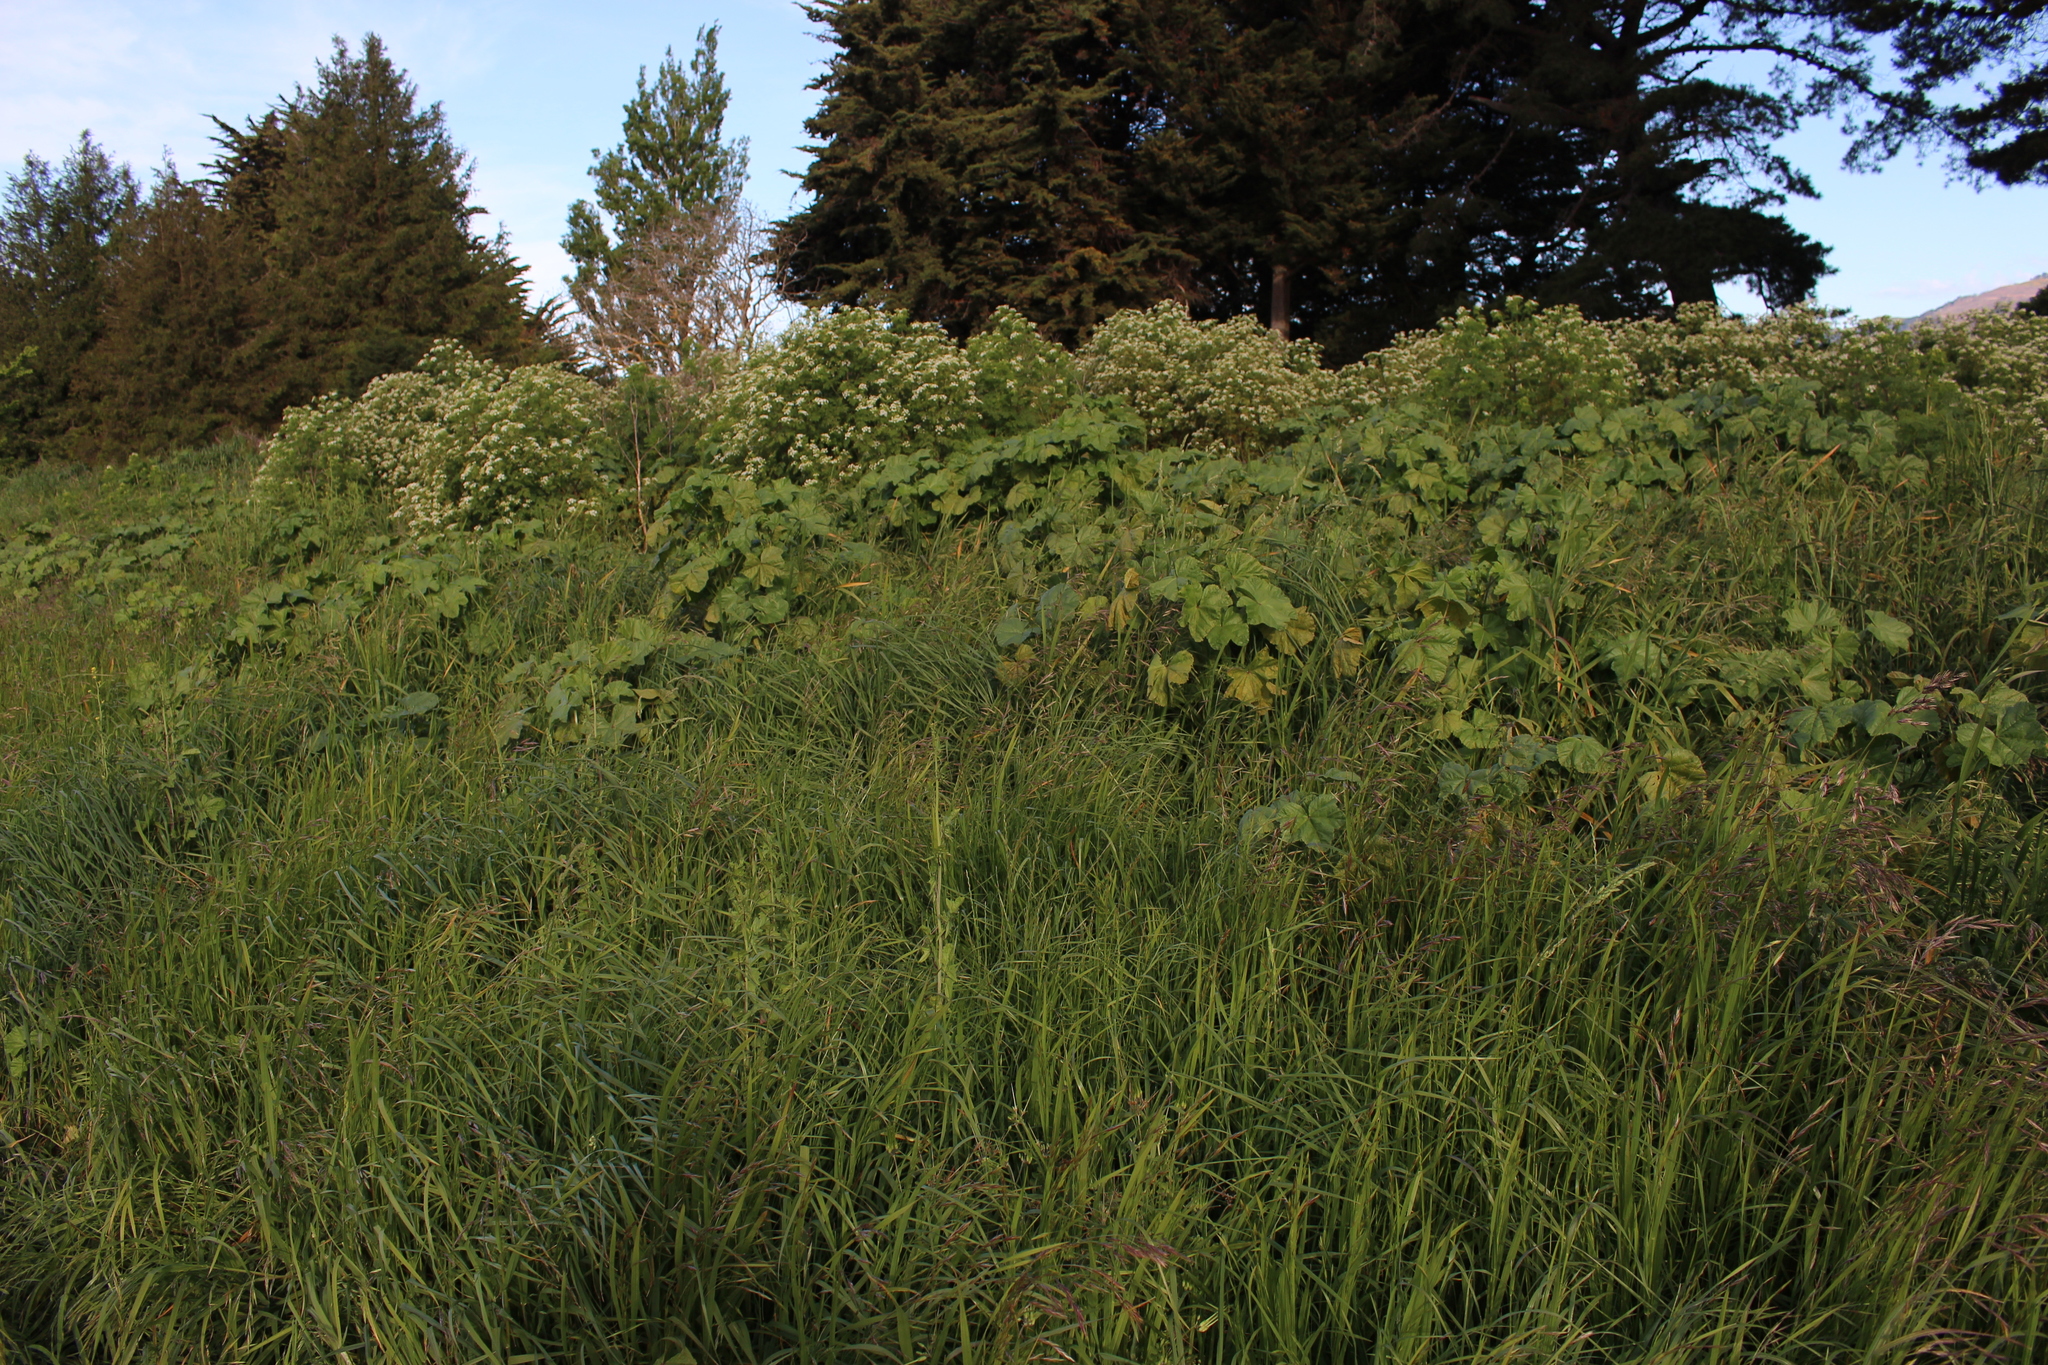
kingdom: Plantae
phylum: Tracheophyta
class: Magnoliopsida
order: Apiales
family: Apiaceae
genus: Conium
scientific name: Conium maculatum
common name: Hemlock
